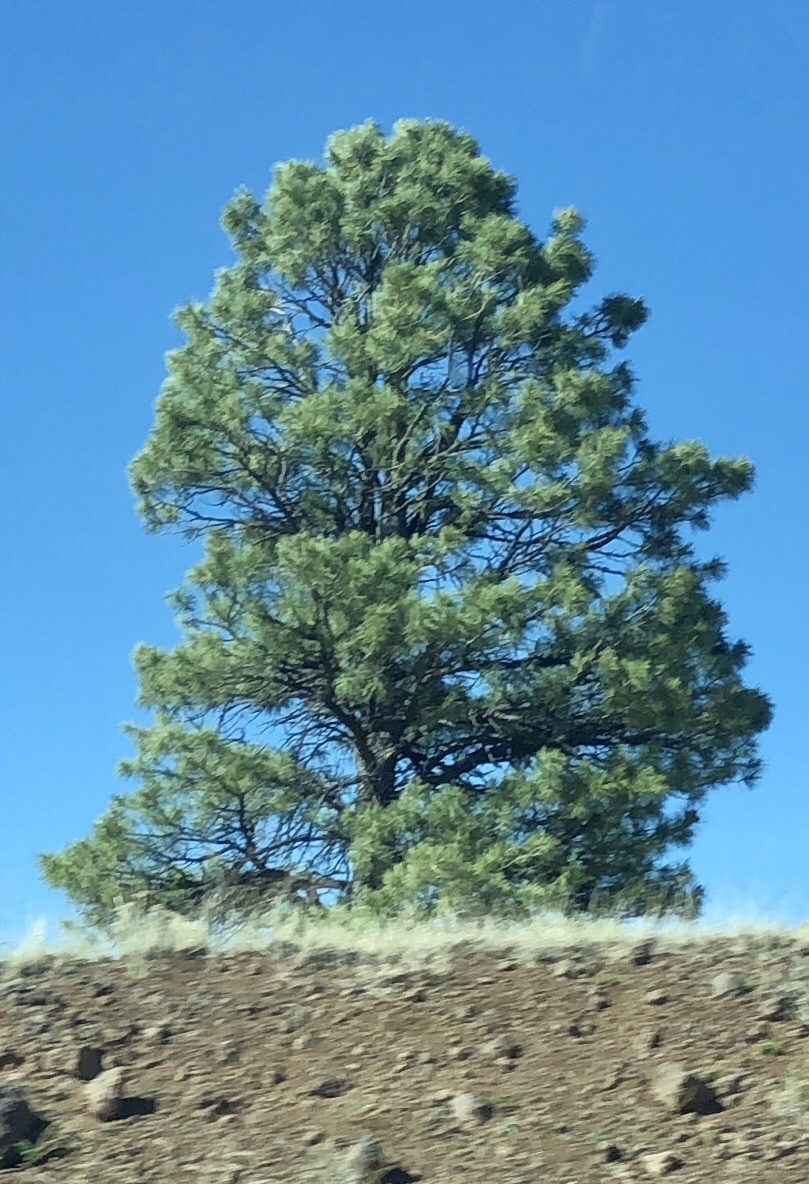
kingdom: Plantae
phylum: Tracheophyta
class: Pinopsida
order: Pinales
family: Pinaceae
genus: Pinus
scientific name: Pinus ponderosa
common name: Western yellow-pine
